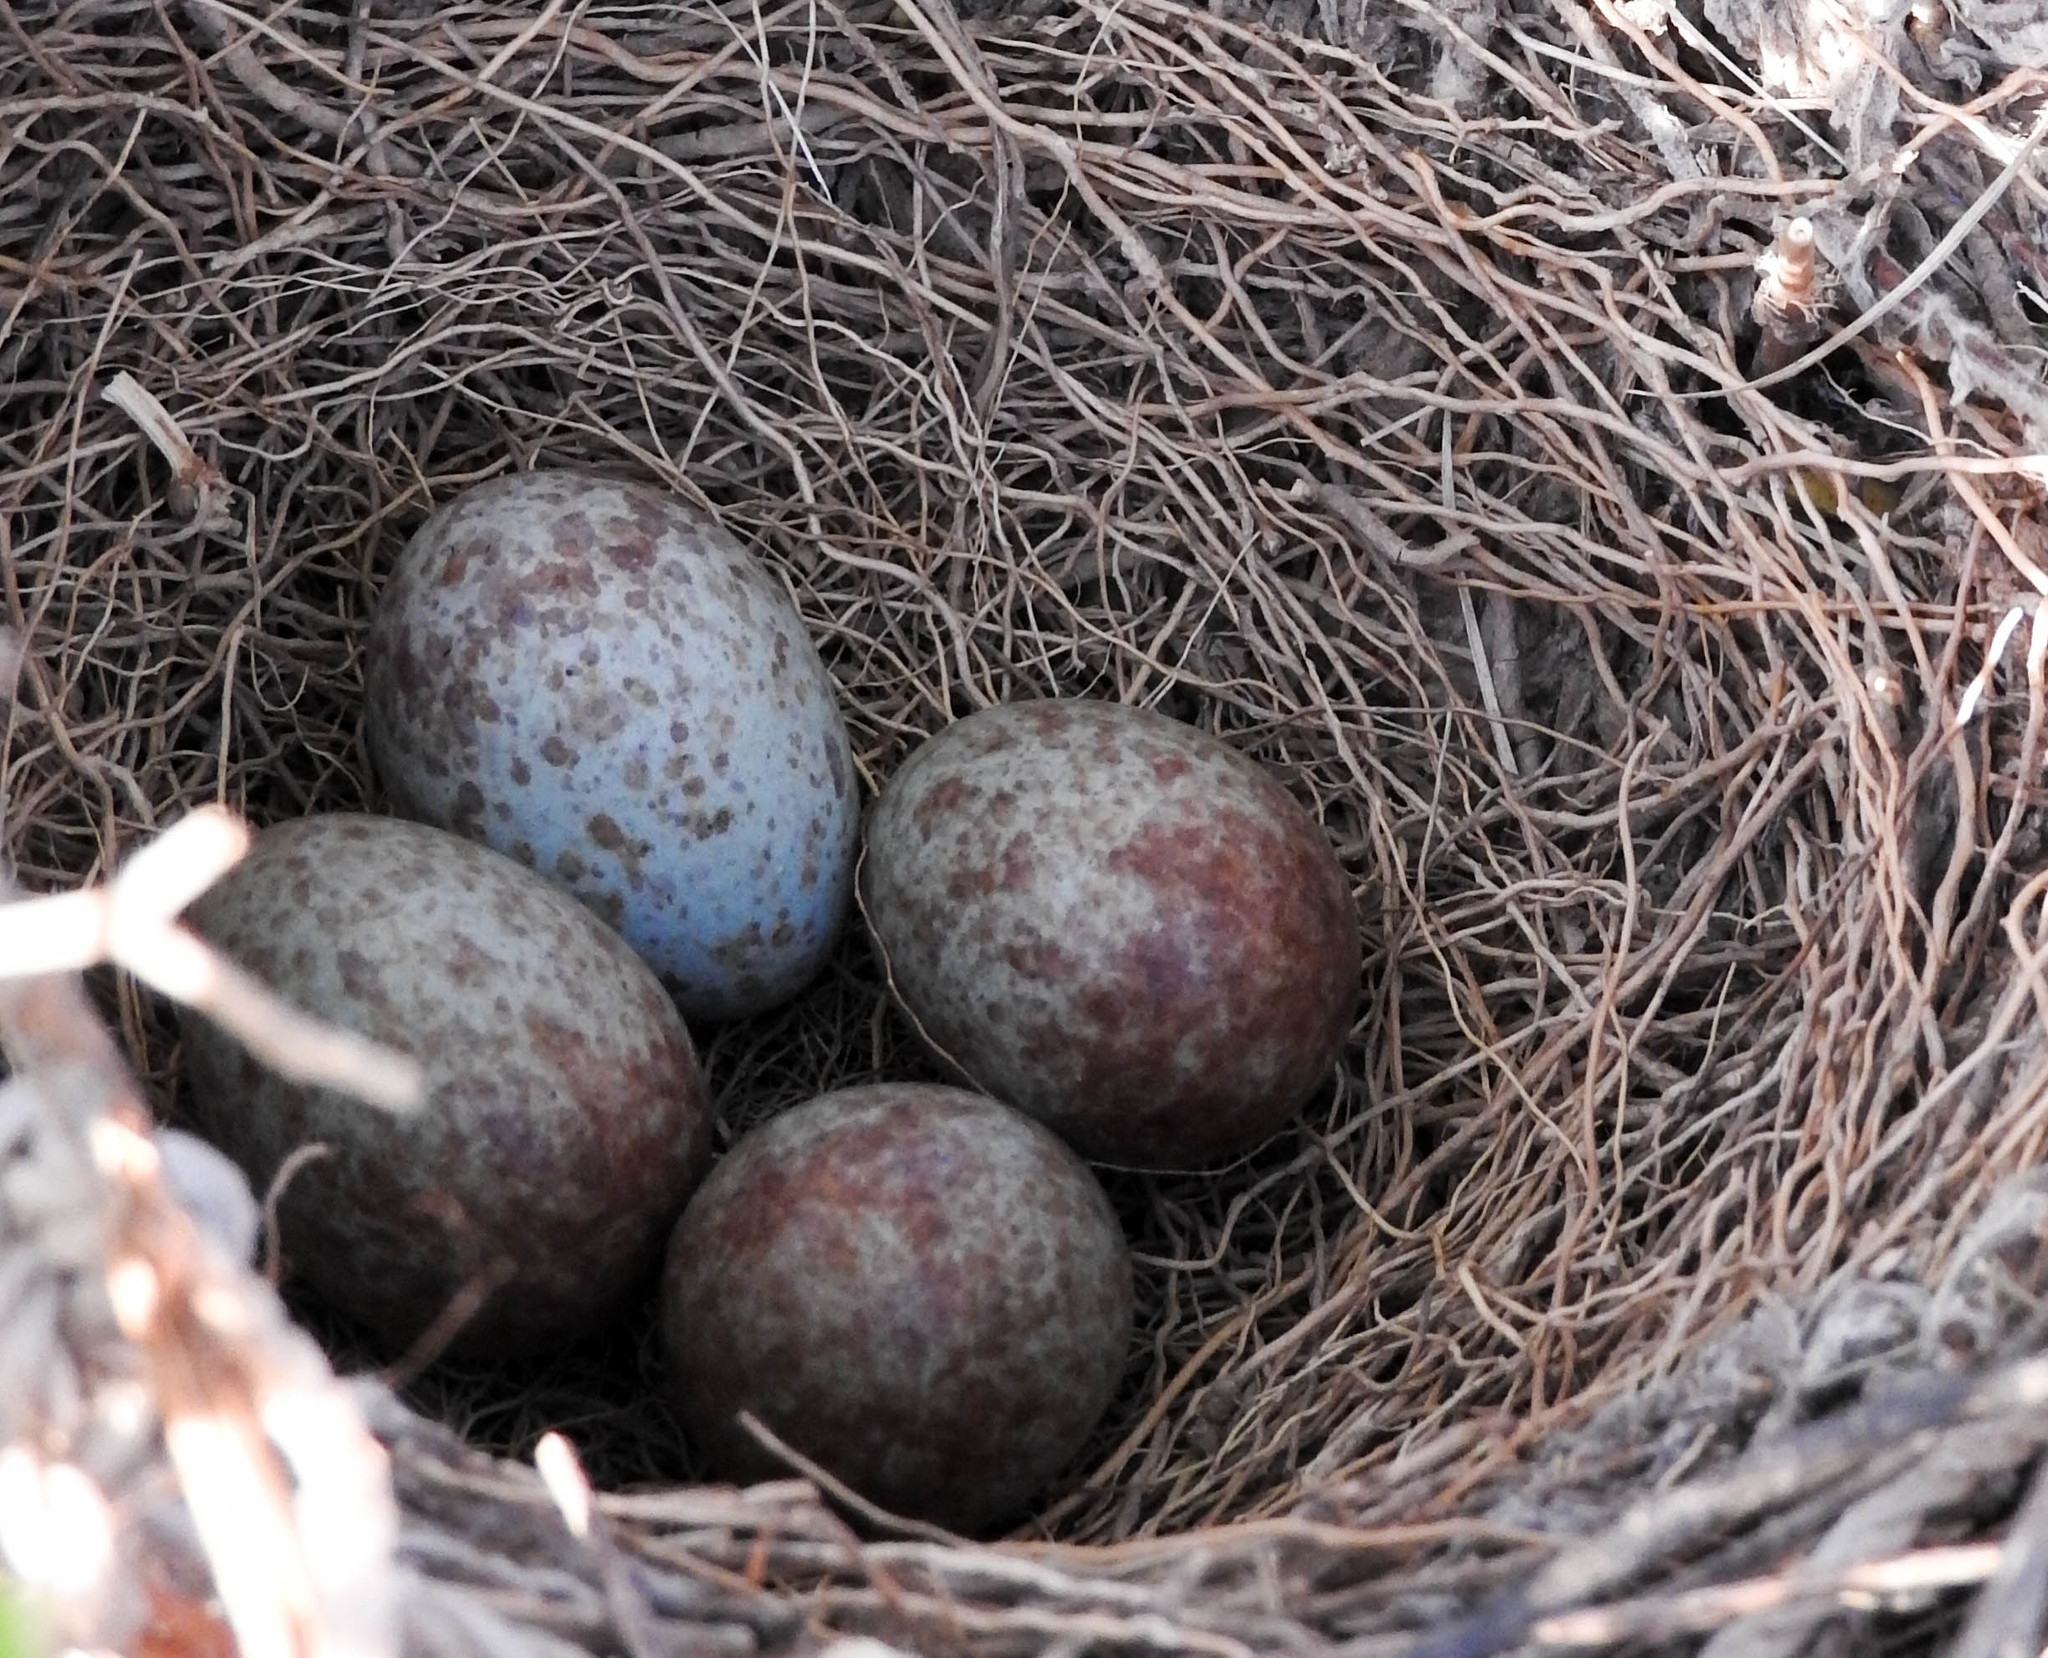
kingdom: Animalia
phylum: Chordata
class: Aves
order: Passeriformes
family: Mimidae
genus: Mimus
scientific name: Mimus saturninus
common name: Chalk-browed mockingbird
